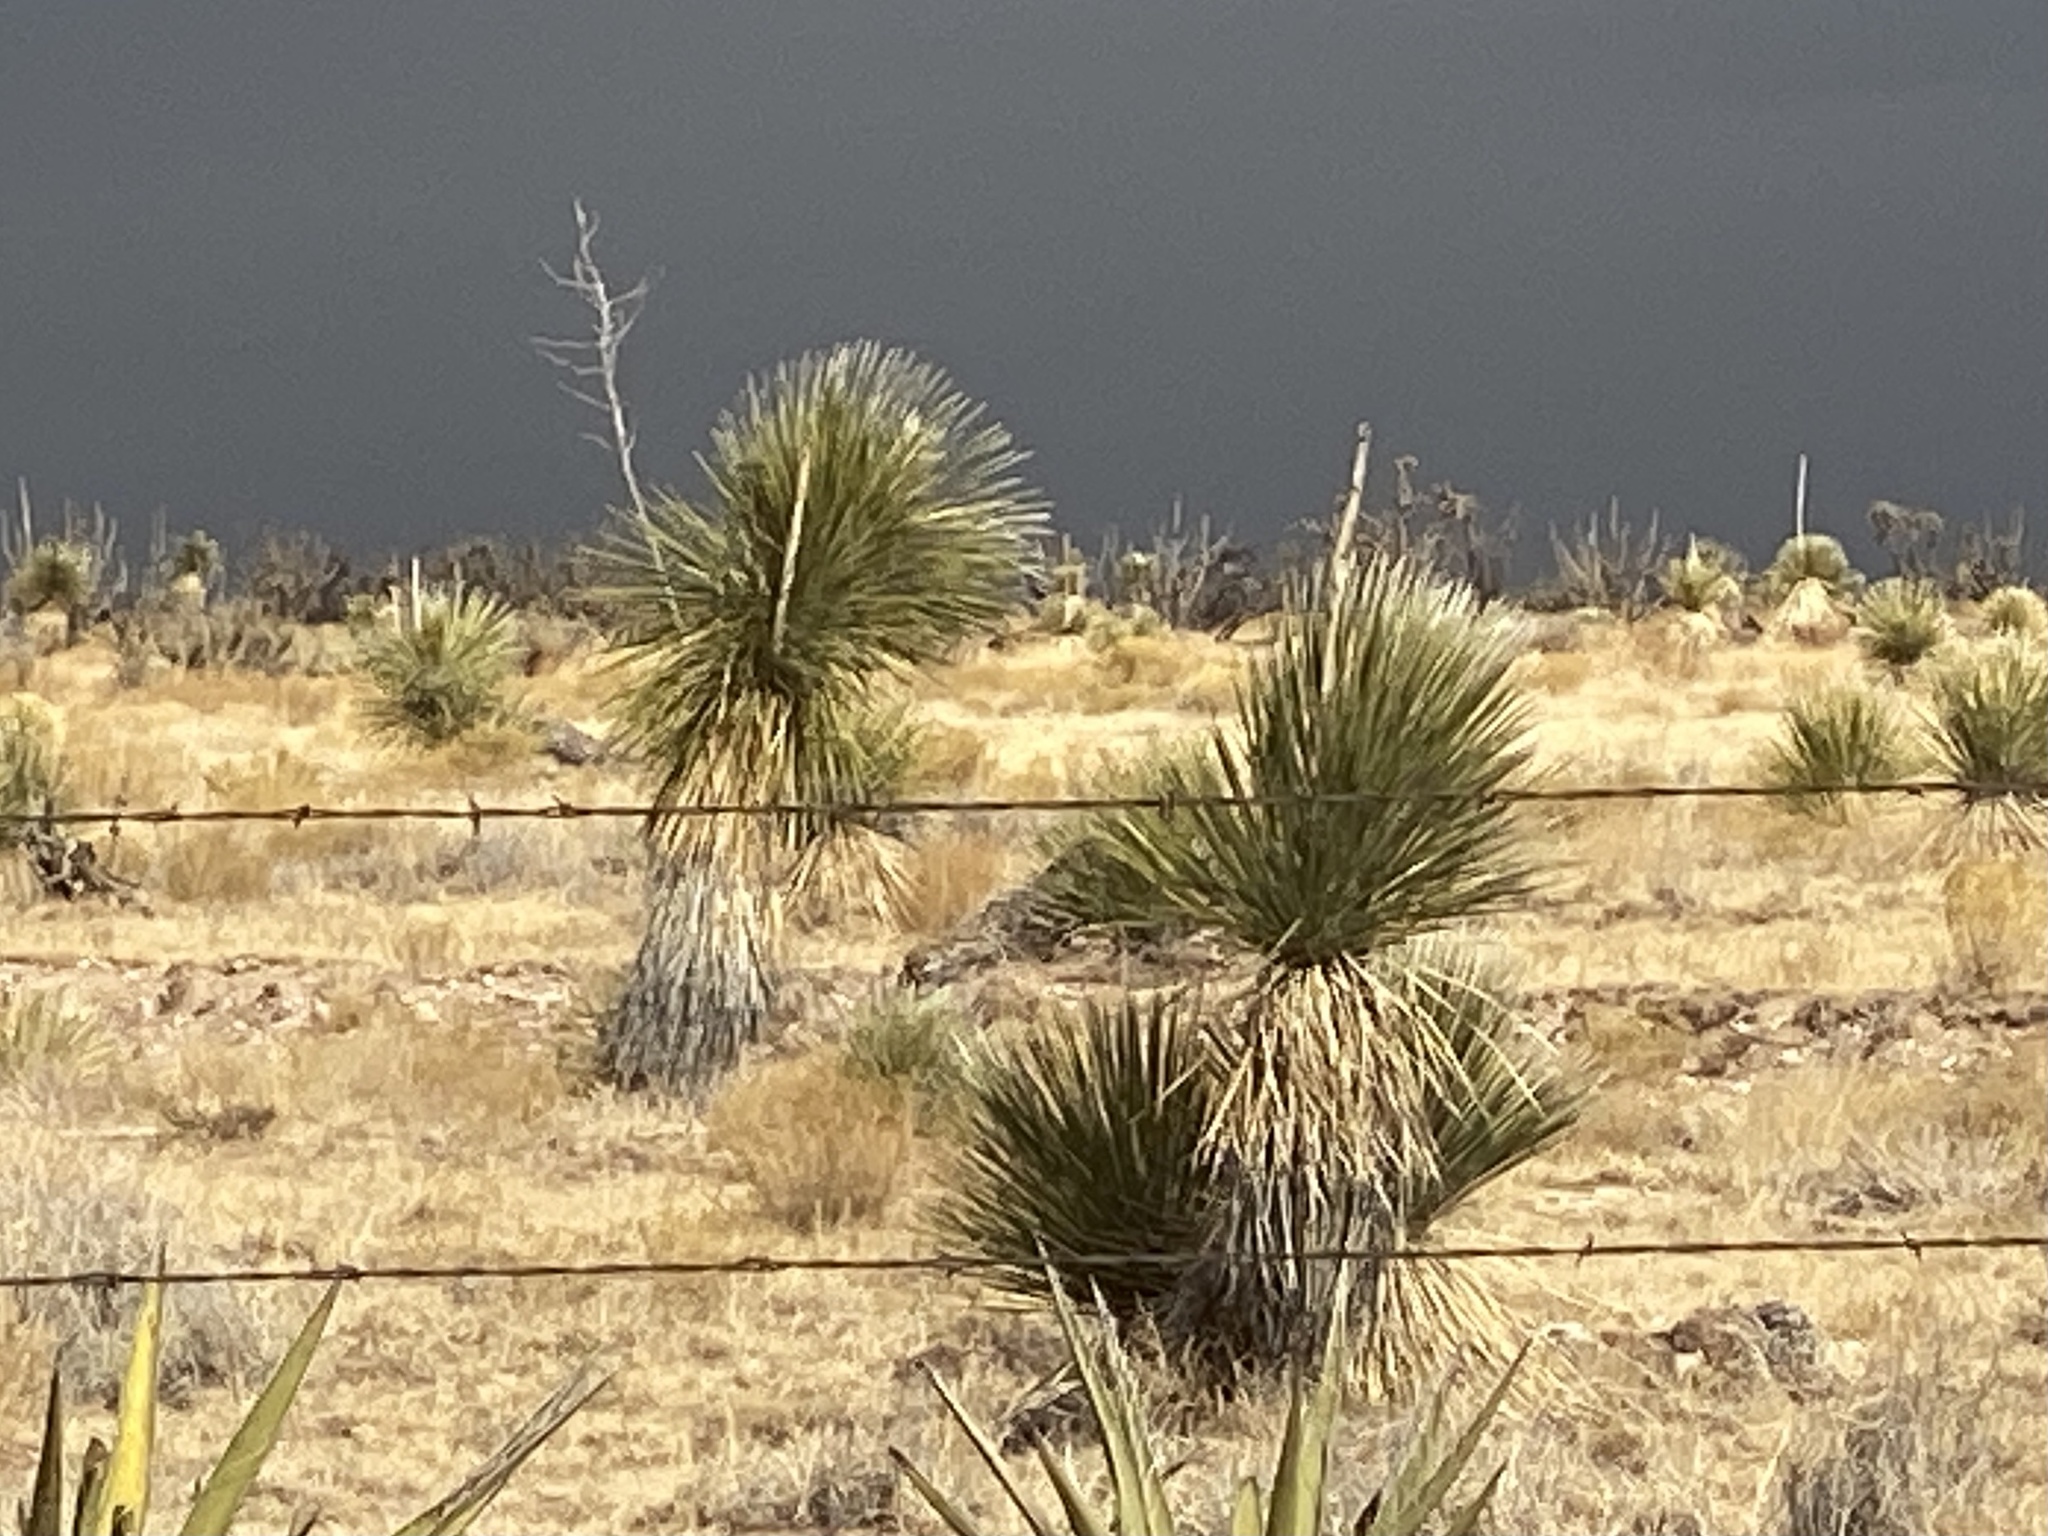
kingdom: Plantae
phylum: Tracheophyta
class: Liliopsida
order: Asparagales
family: Asparagaceae
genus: Yucca
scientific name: Yucca elata
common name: Palmella
